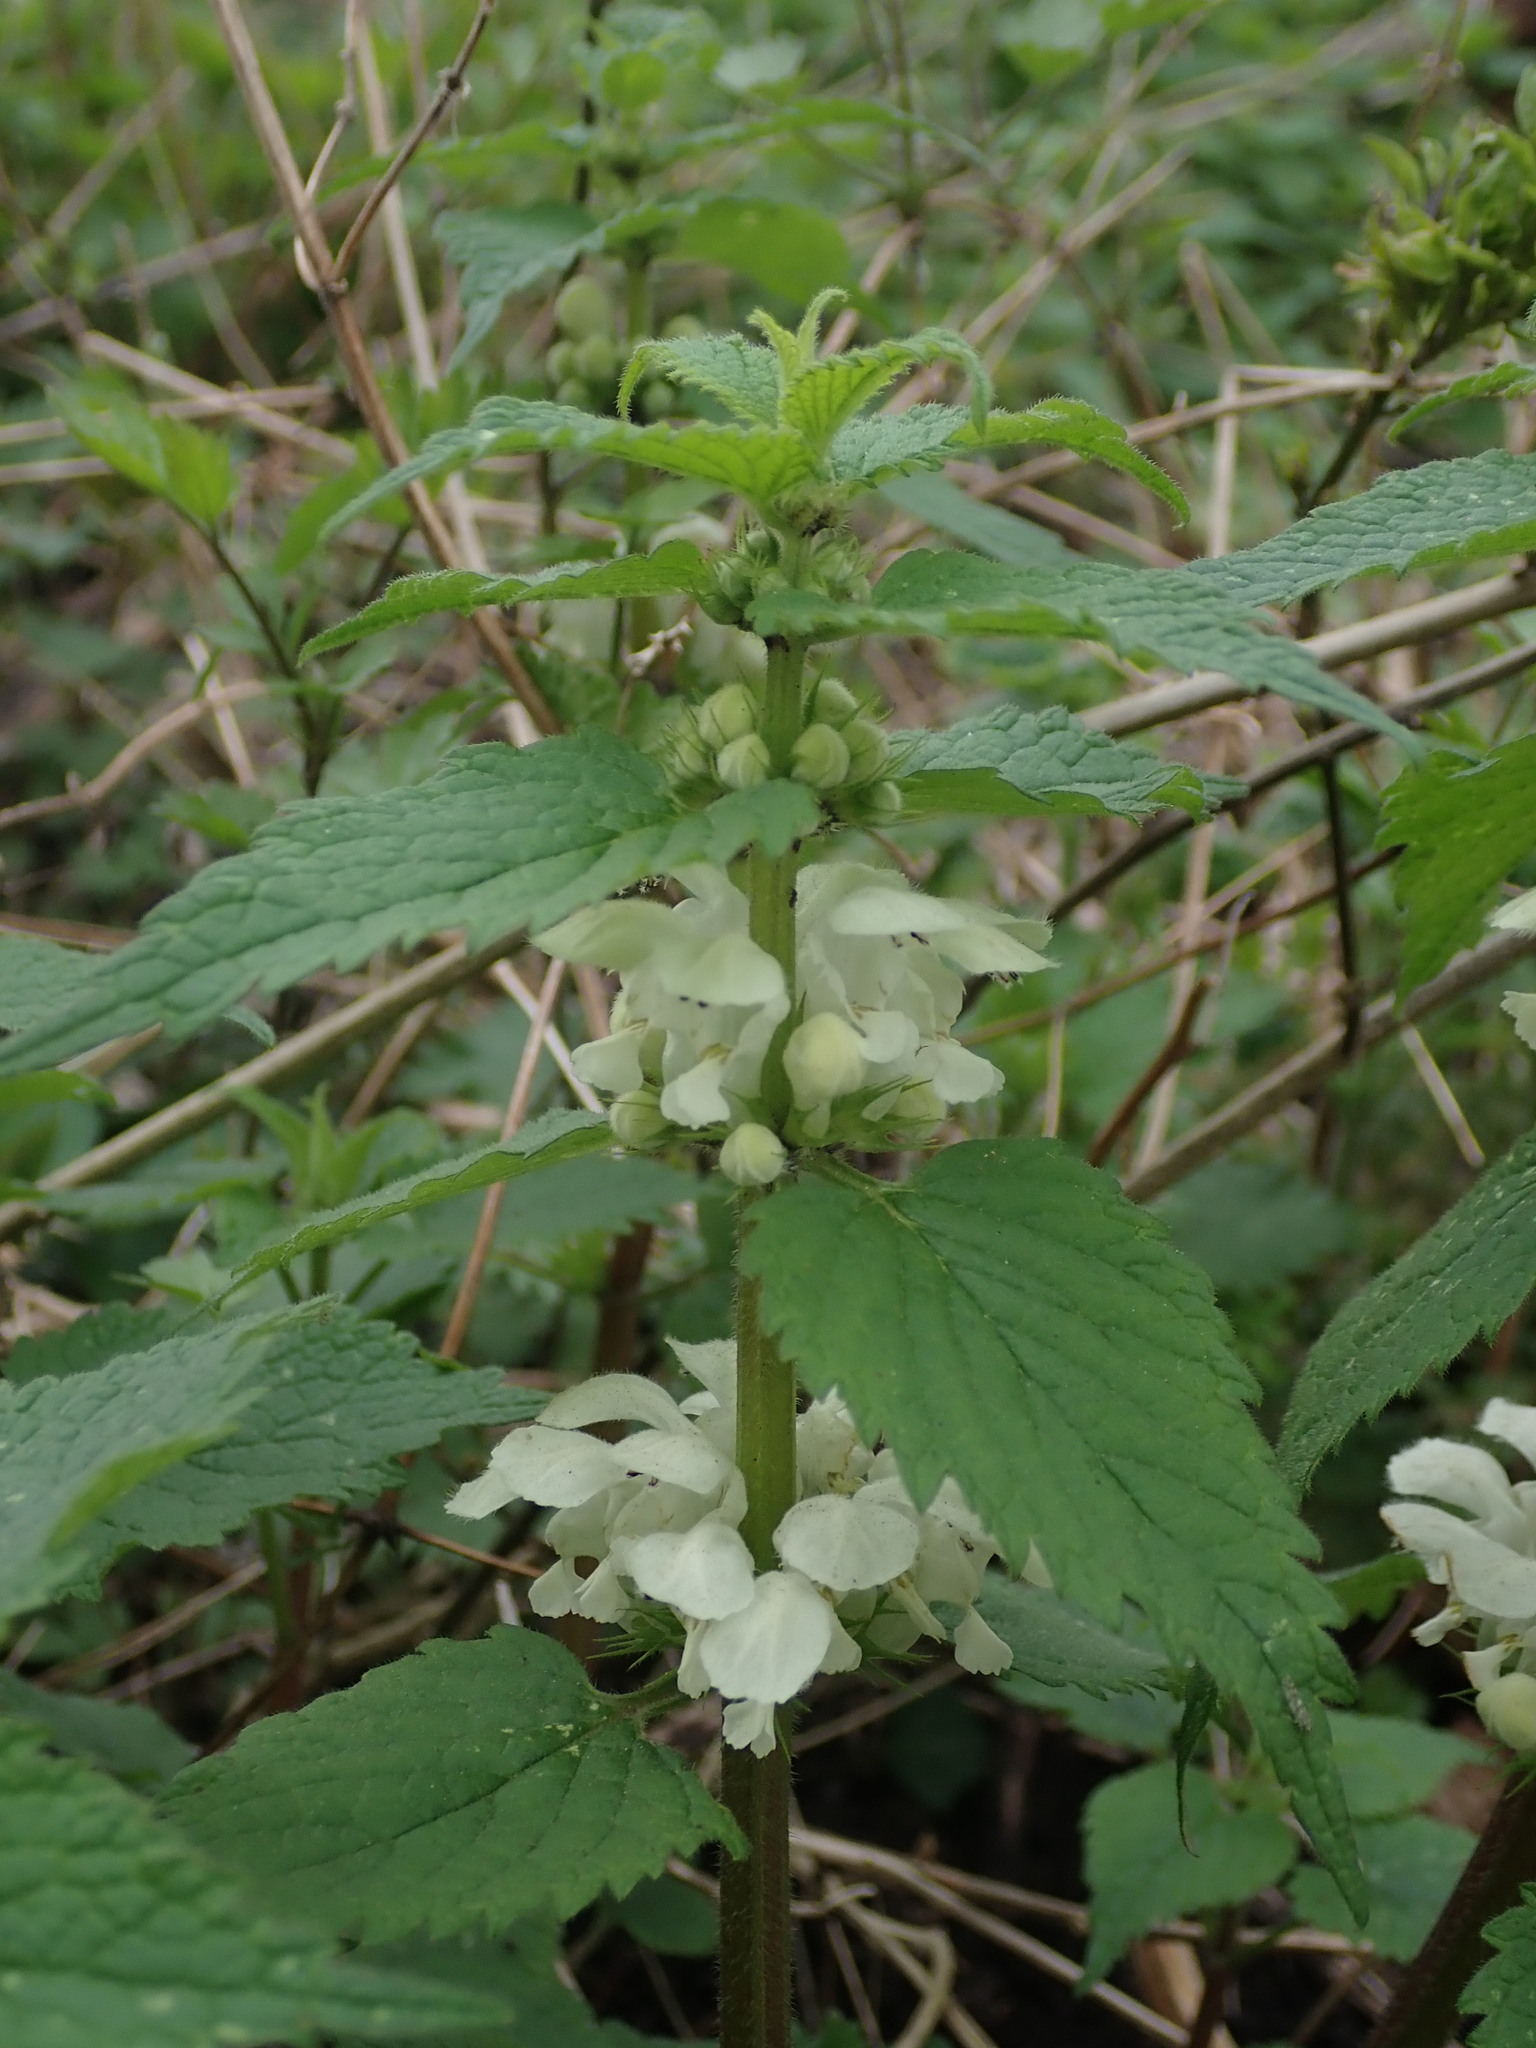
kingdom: Plantae
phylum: Tracheophyta
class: Magnoliopsida
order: Lamiales
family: Lamiaceae
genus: Lamium
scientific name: Lamium album
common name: White dead-nettle
